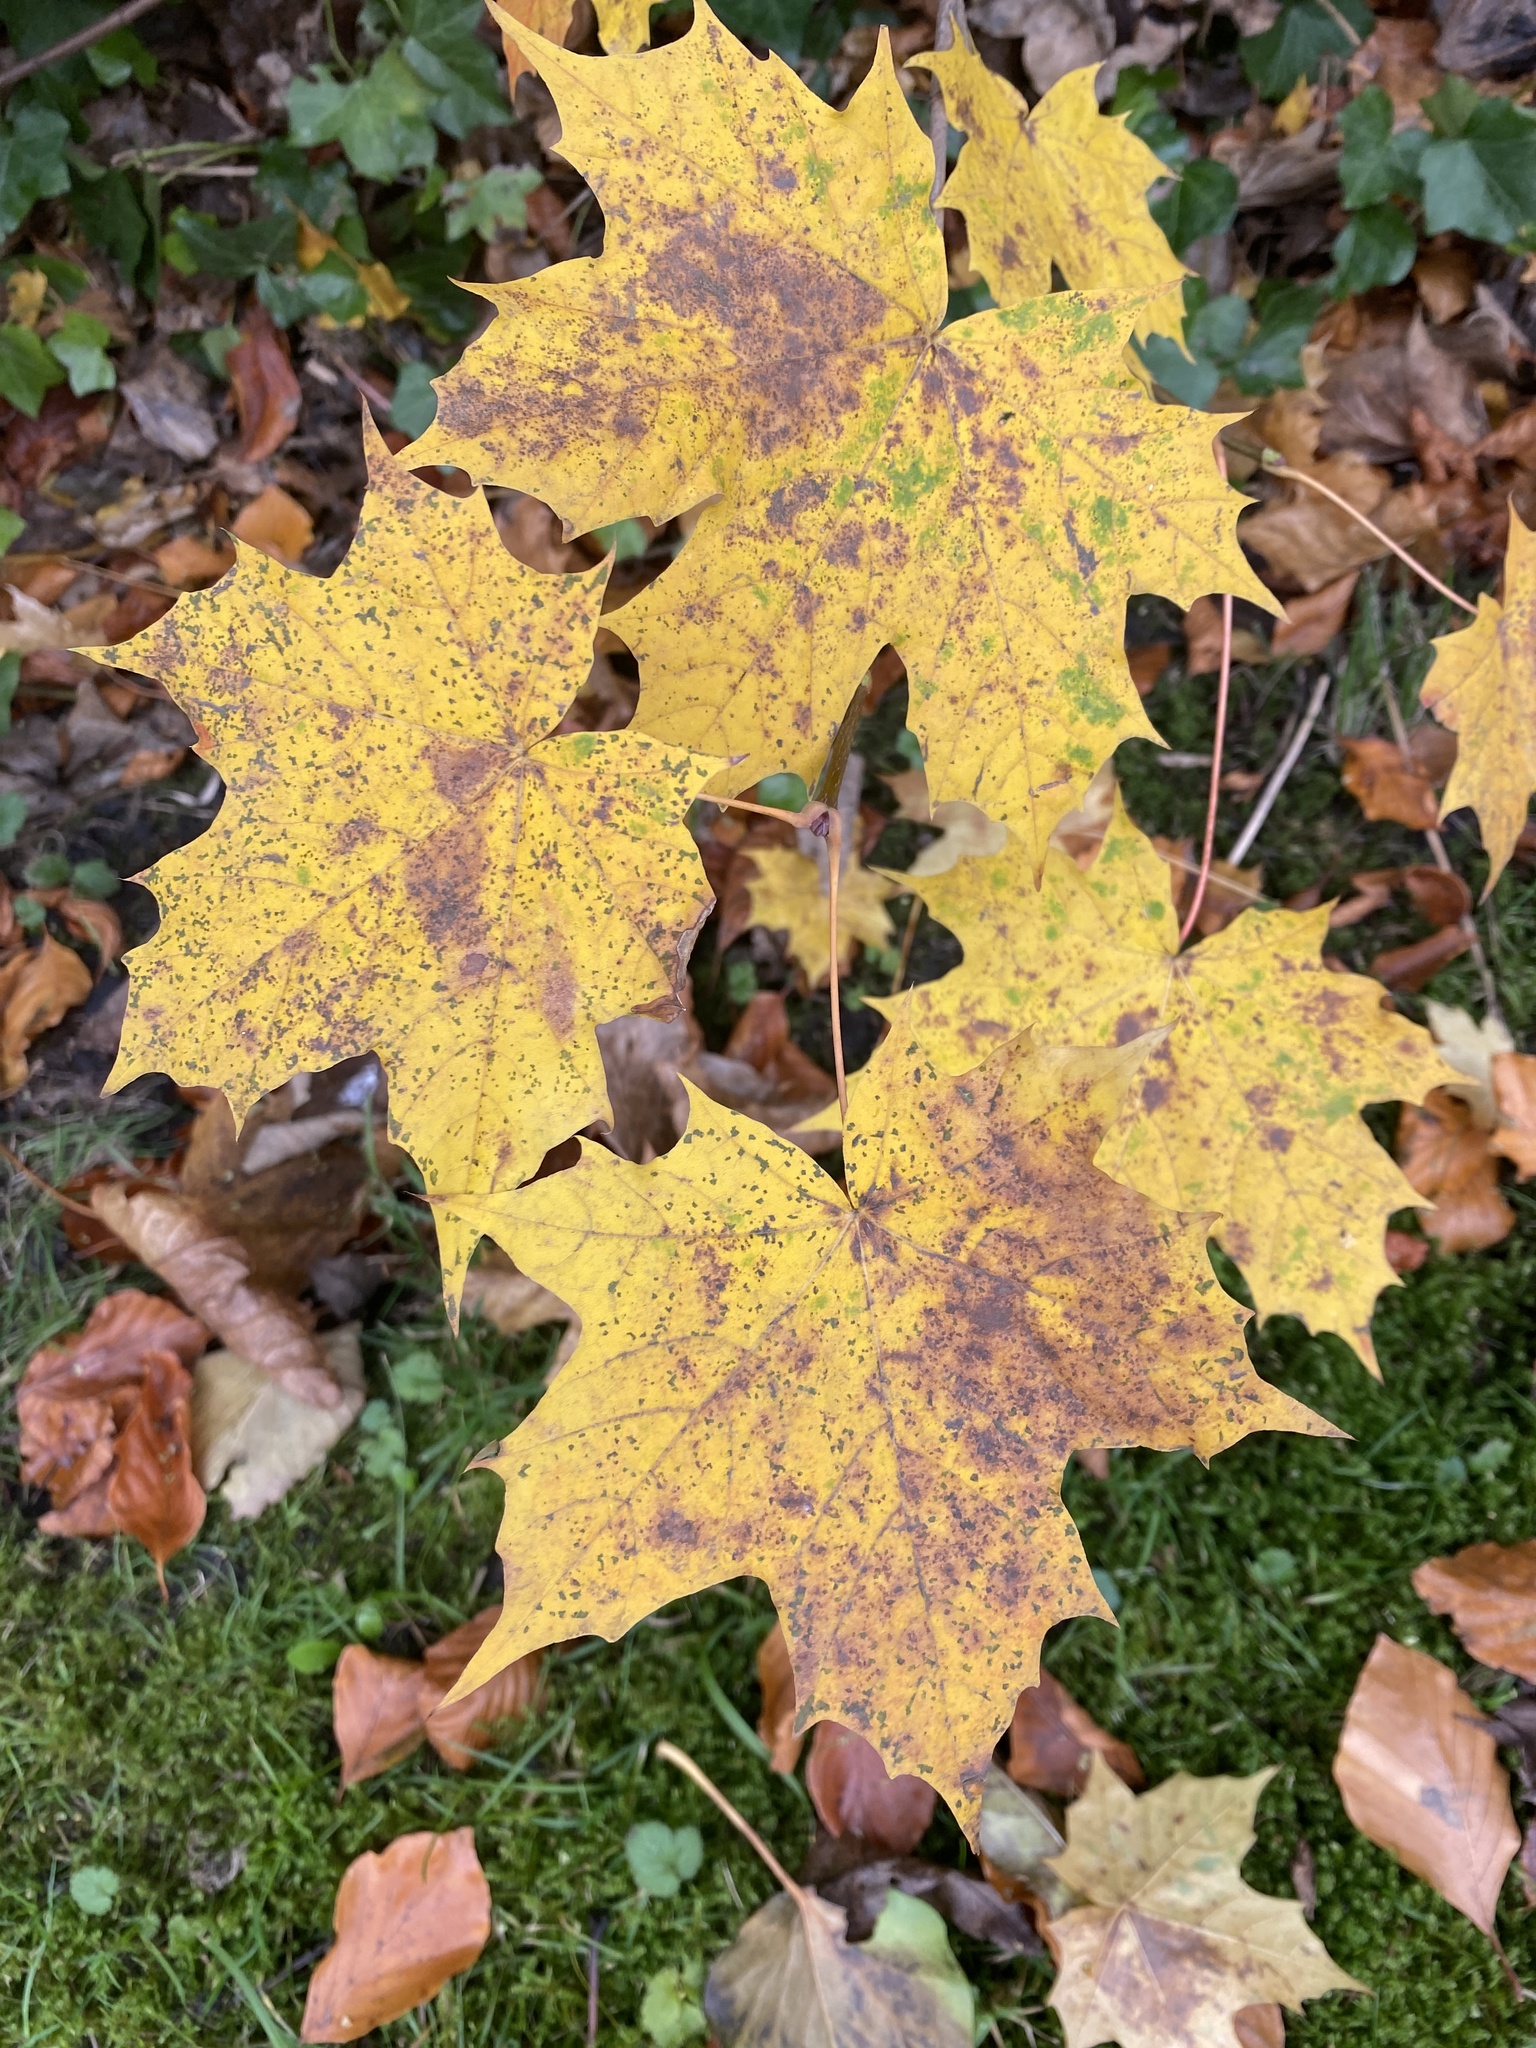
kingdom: Plantae
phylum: Tracheophyta
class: Magnoliopsida
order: Sapindales
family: Sapindaceae
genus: Acer
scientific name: Acer platanoides
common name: Norway maple
